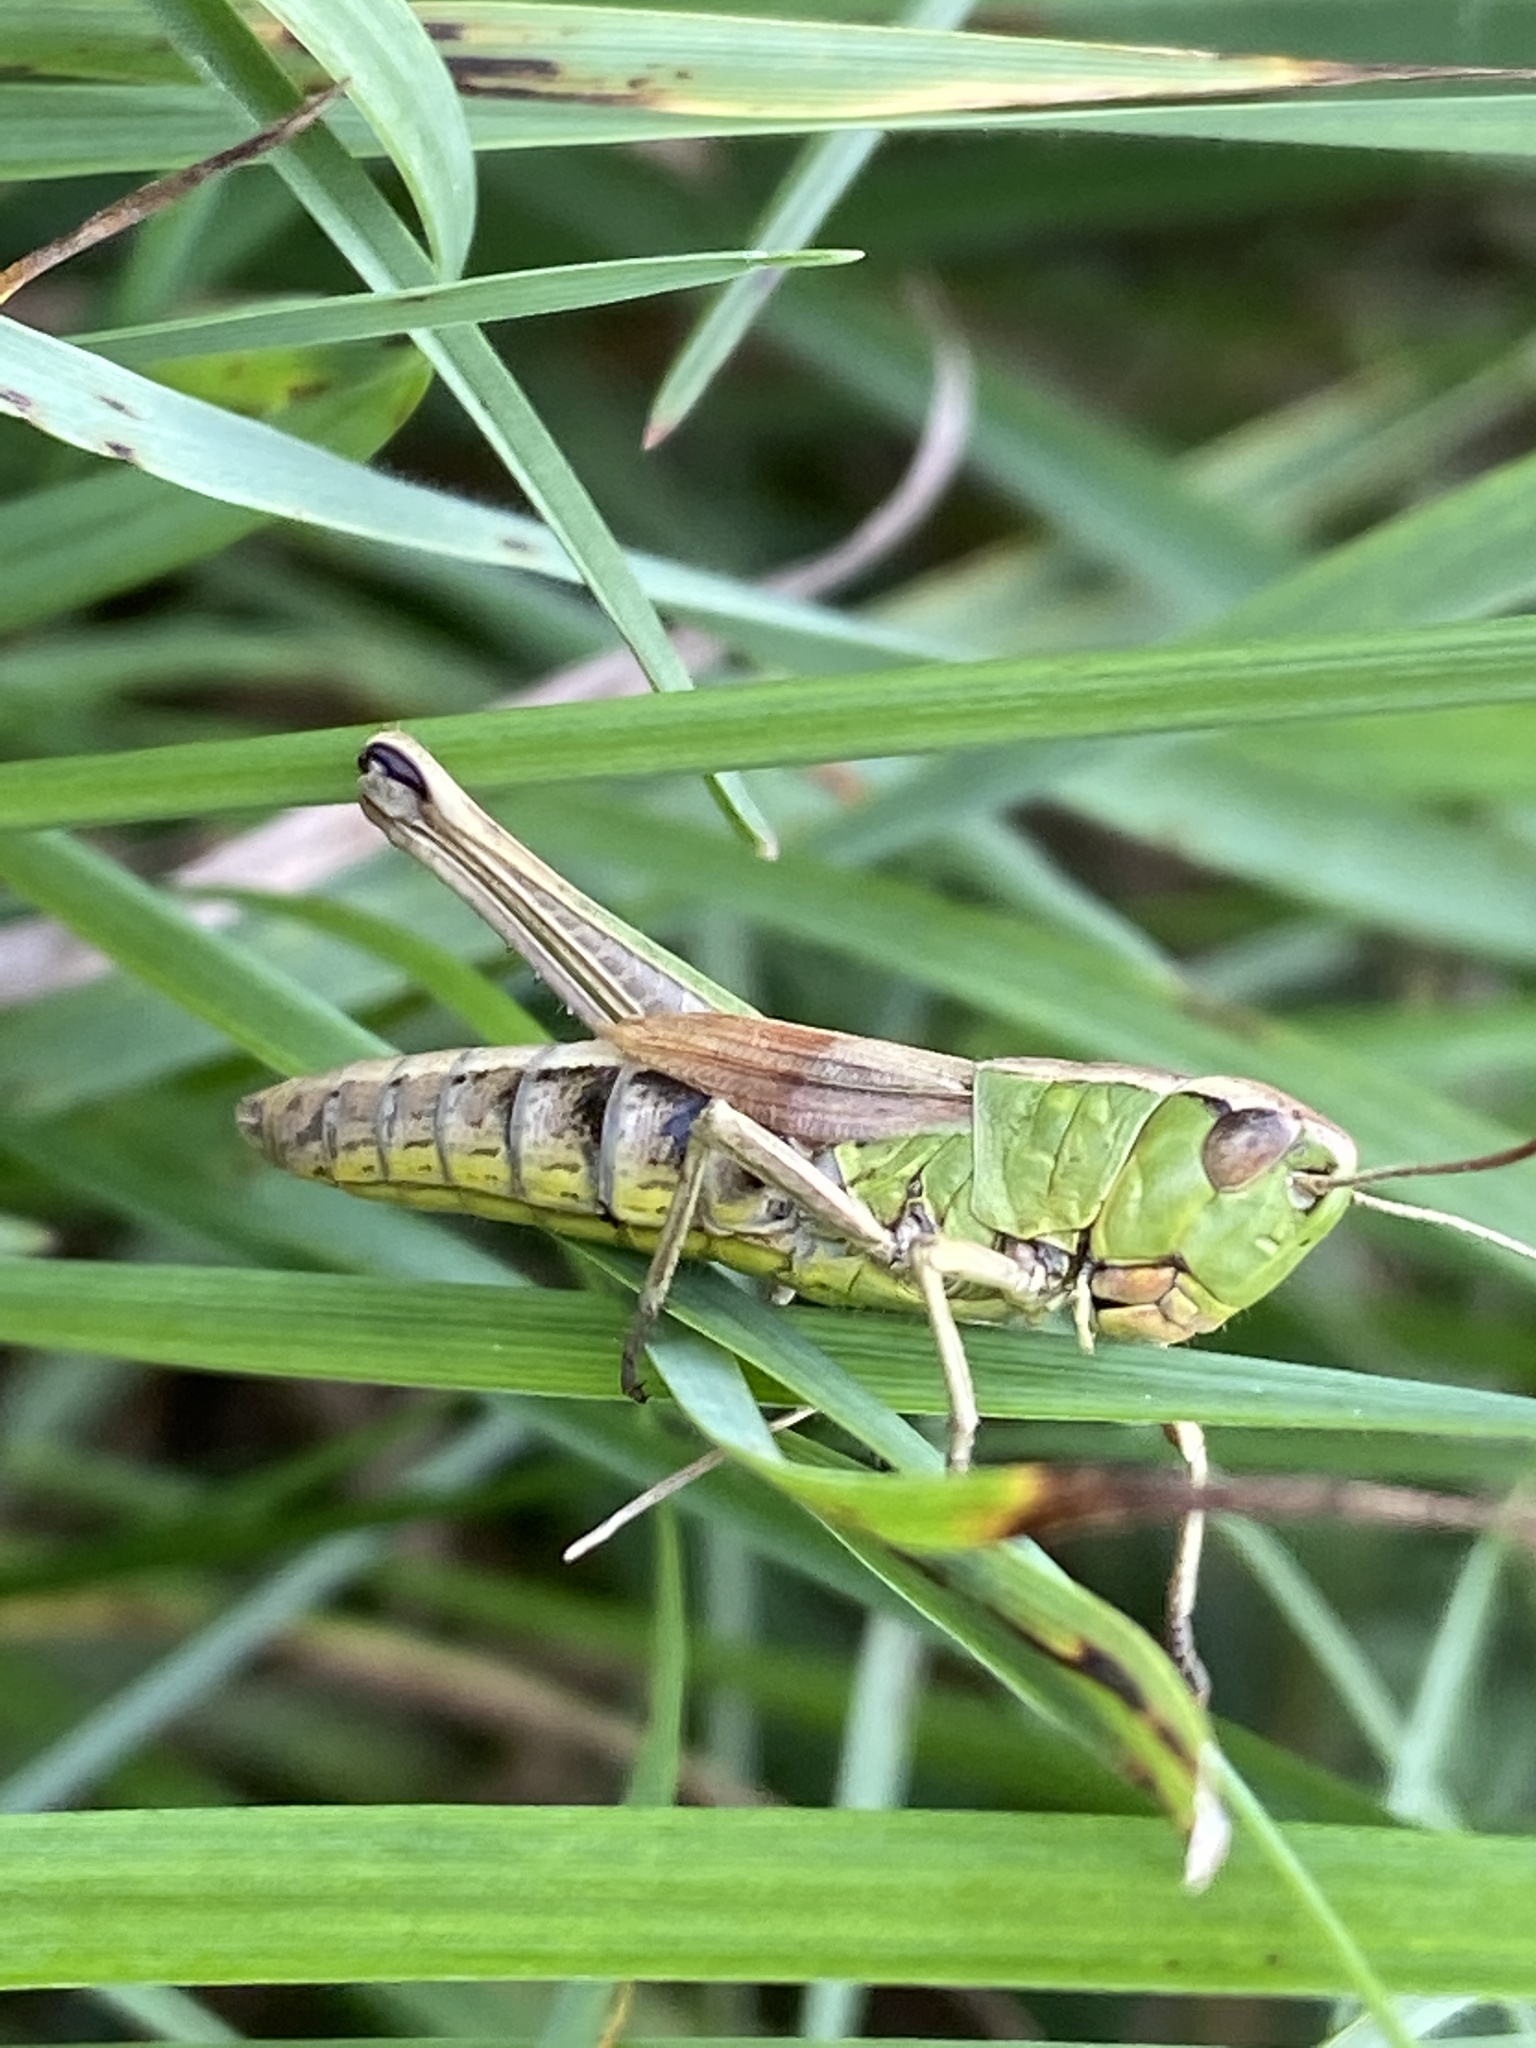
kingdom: Animalia
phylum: Arthropoda
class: Insecta
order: Orthoptera
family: Acrididae
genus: Pseudochorthippus
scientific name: Pseudochorthippus parallelus
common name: Meadow grasshopper
